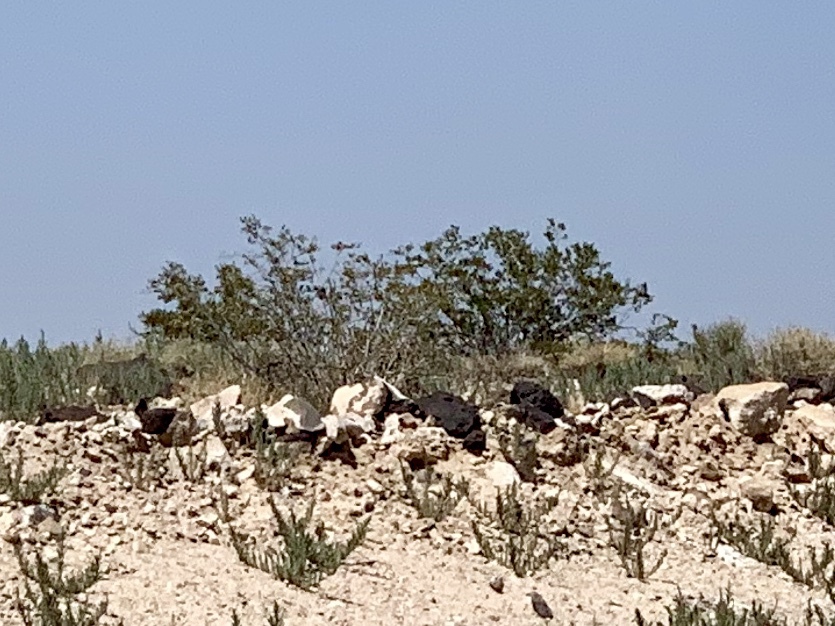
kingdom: Plantae
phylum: Tracheophyta
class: Magnoliopsida
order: Zygophyllales
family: Zygophyllaceae
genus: Larrea
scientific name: Larrea tridentata
